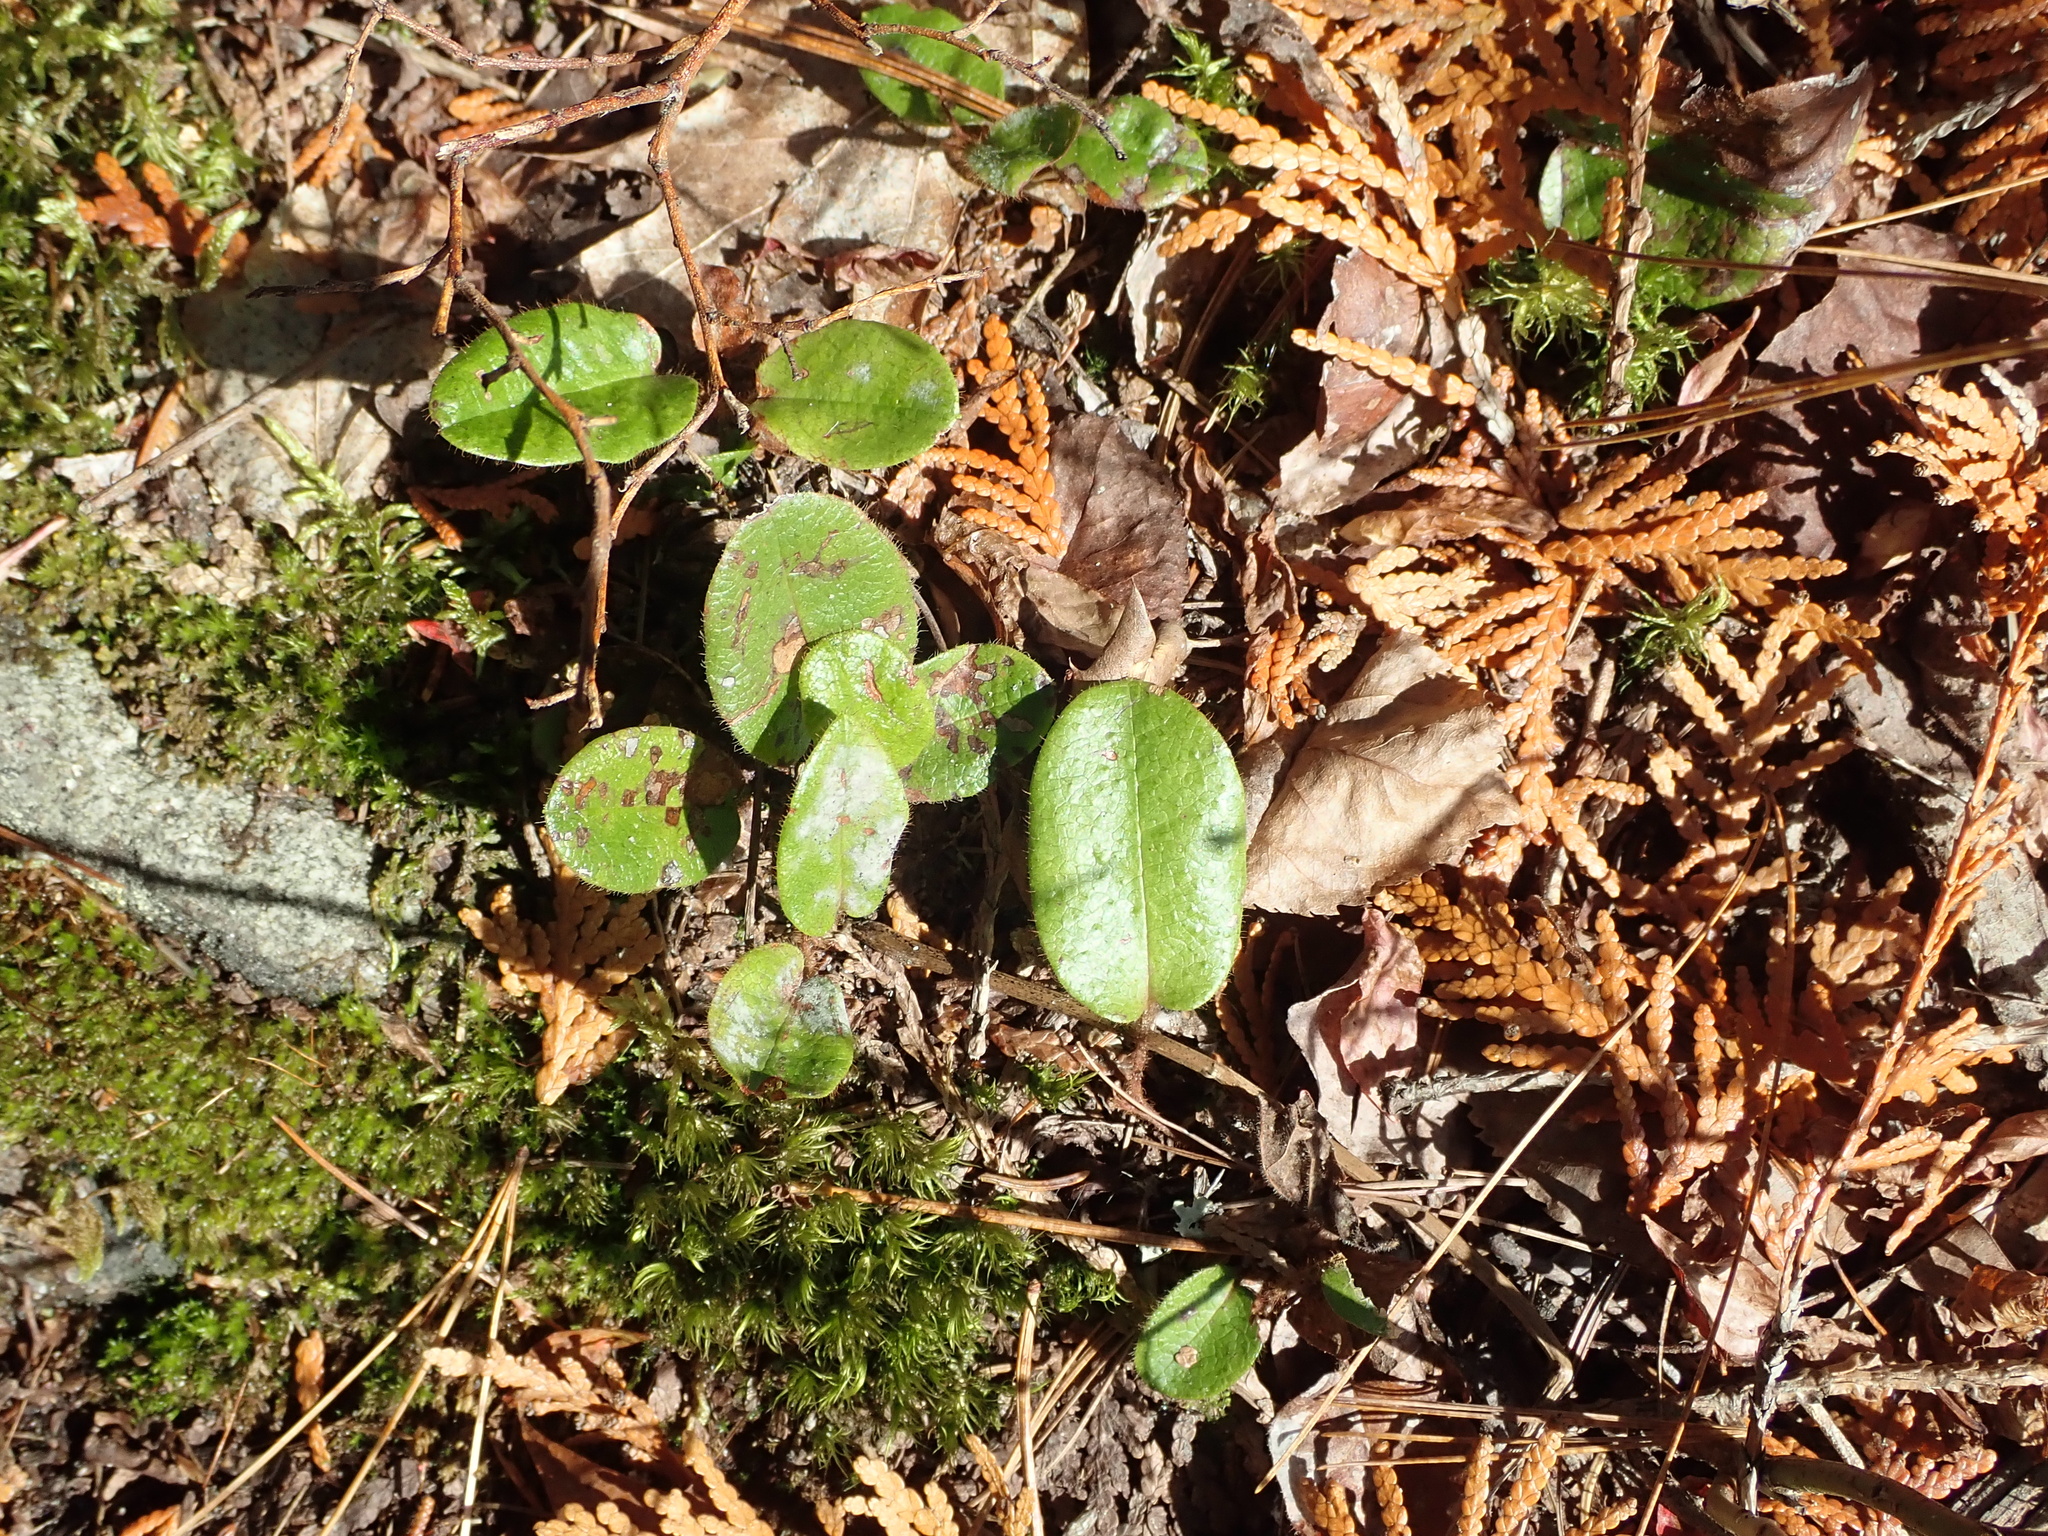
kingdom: Plantae
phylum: Tracheophyta
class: Magnoliopsida
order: Ericales
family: Ericaceae
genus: Epigaea
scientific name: Epigaea repens
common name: Gravelroot
